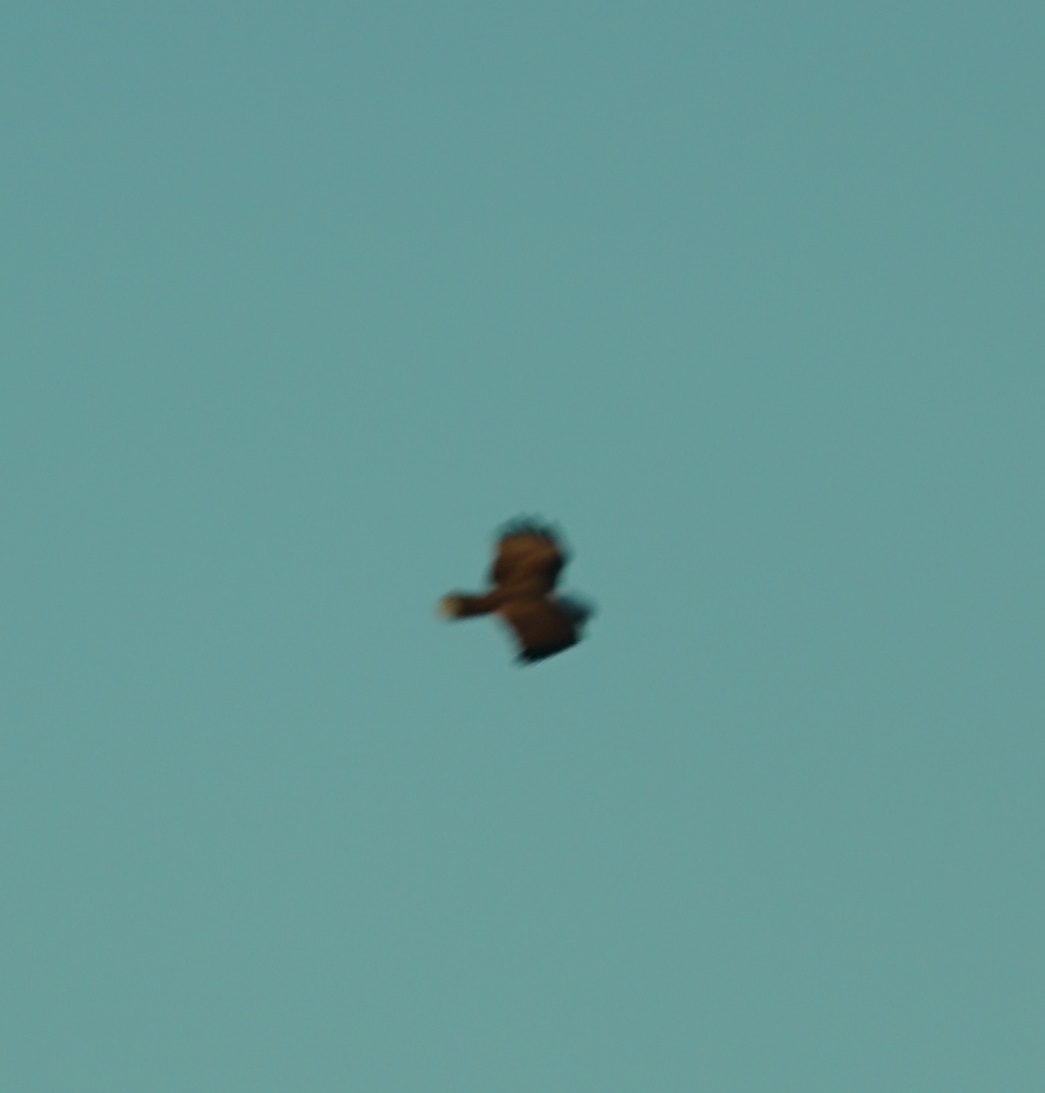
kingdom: Animalia
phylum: Chordata
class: Aves
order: Accipitriformes
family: Accipitridae
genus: Haliastur
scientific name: Haliastur indus
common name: Brahminy kite
